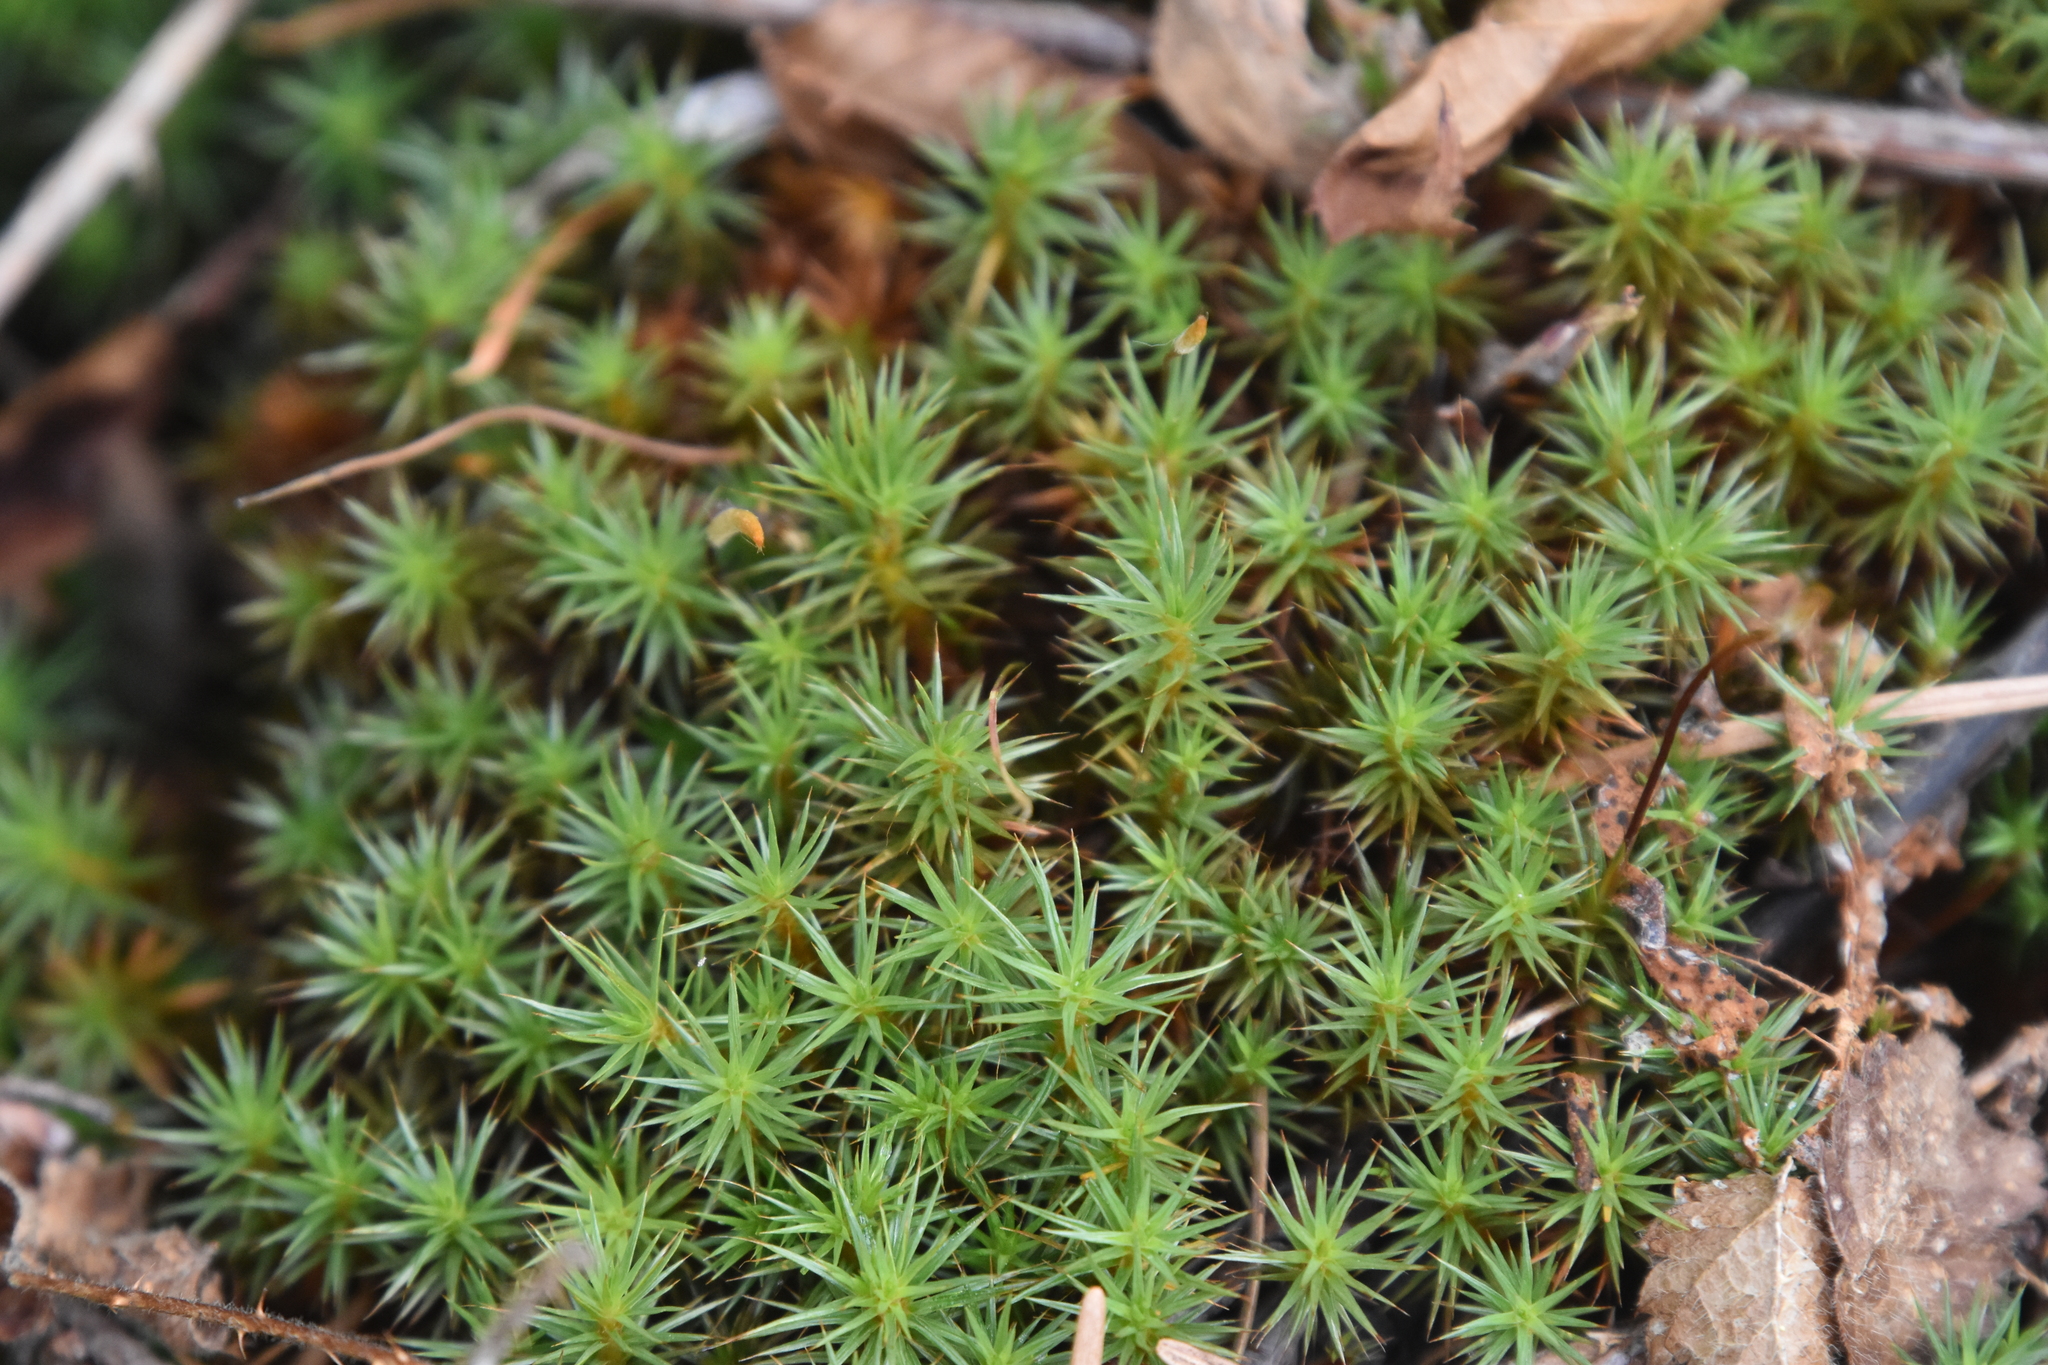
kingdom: Plantae
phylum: Bryophyta
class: Polytrichopsida
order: Polytrichales
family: Polytrichaceae
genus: Polytrichum
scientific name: Polytrichum juniperinum
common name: Juniper haircap moss
